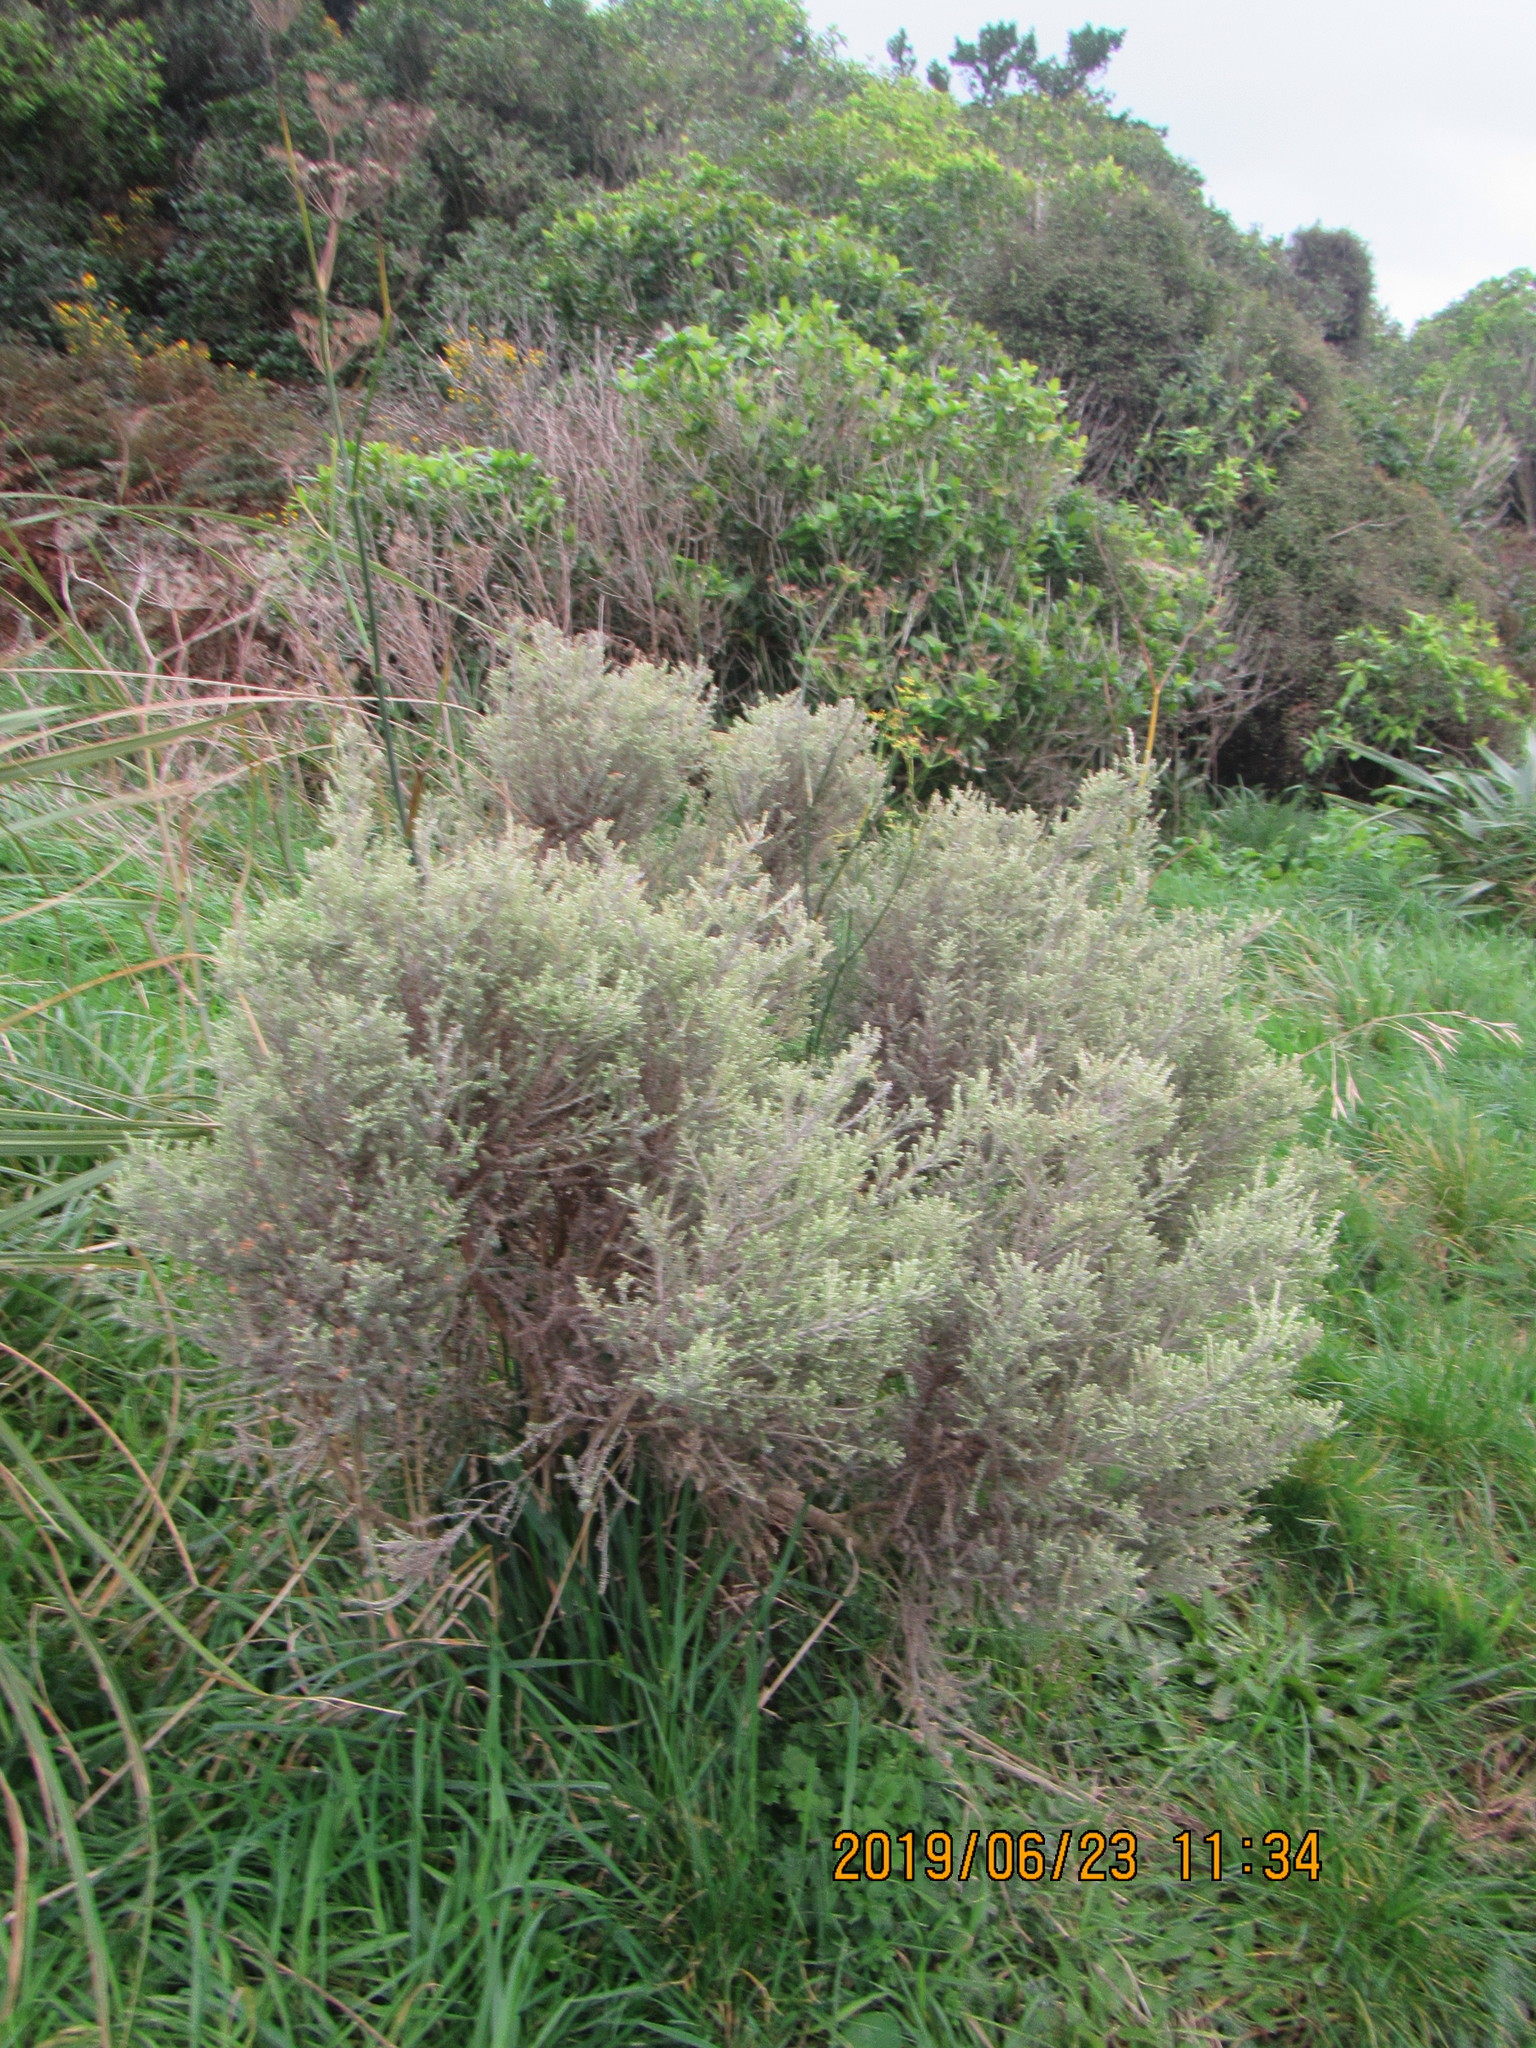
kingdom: Plantae
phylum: Tracheophyta
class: Magnoliopsida
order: Asterales
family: Asteraceae
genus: Ozothamnus
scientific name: Ozothamnus leptophyllus
